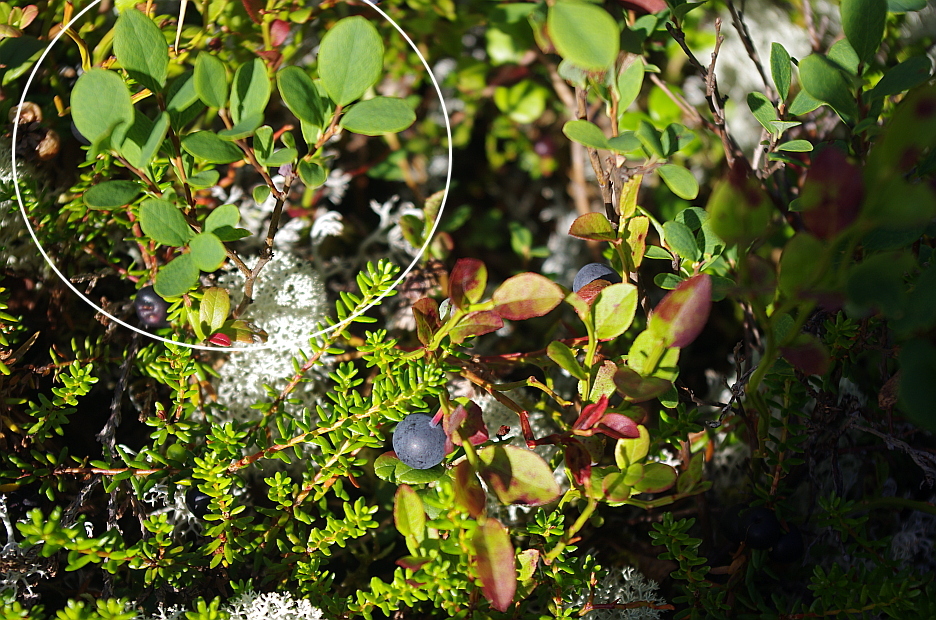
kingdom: Plantae
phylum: Tracheophyta
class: Magnoliopsida
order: Ericales
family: Ericaceae
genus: Vaccinium
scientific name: Vaccinium uliginosum
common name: Bog bilberry
